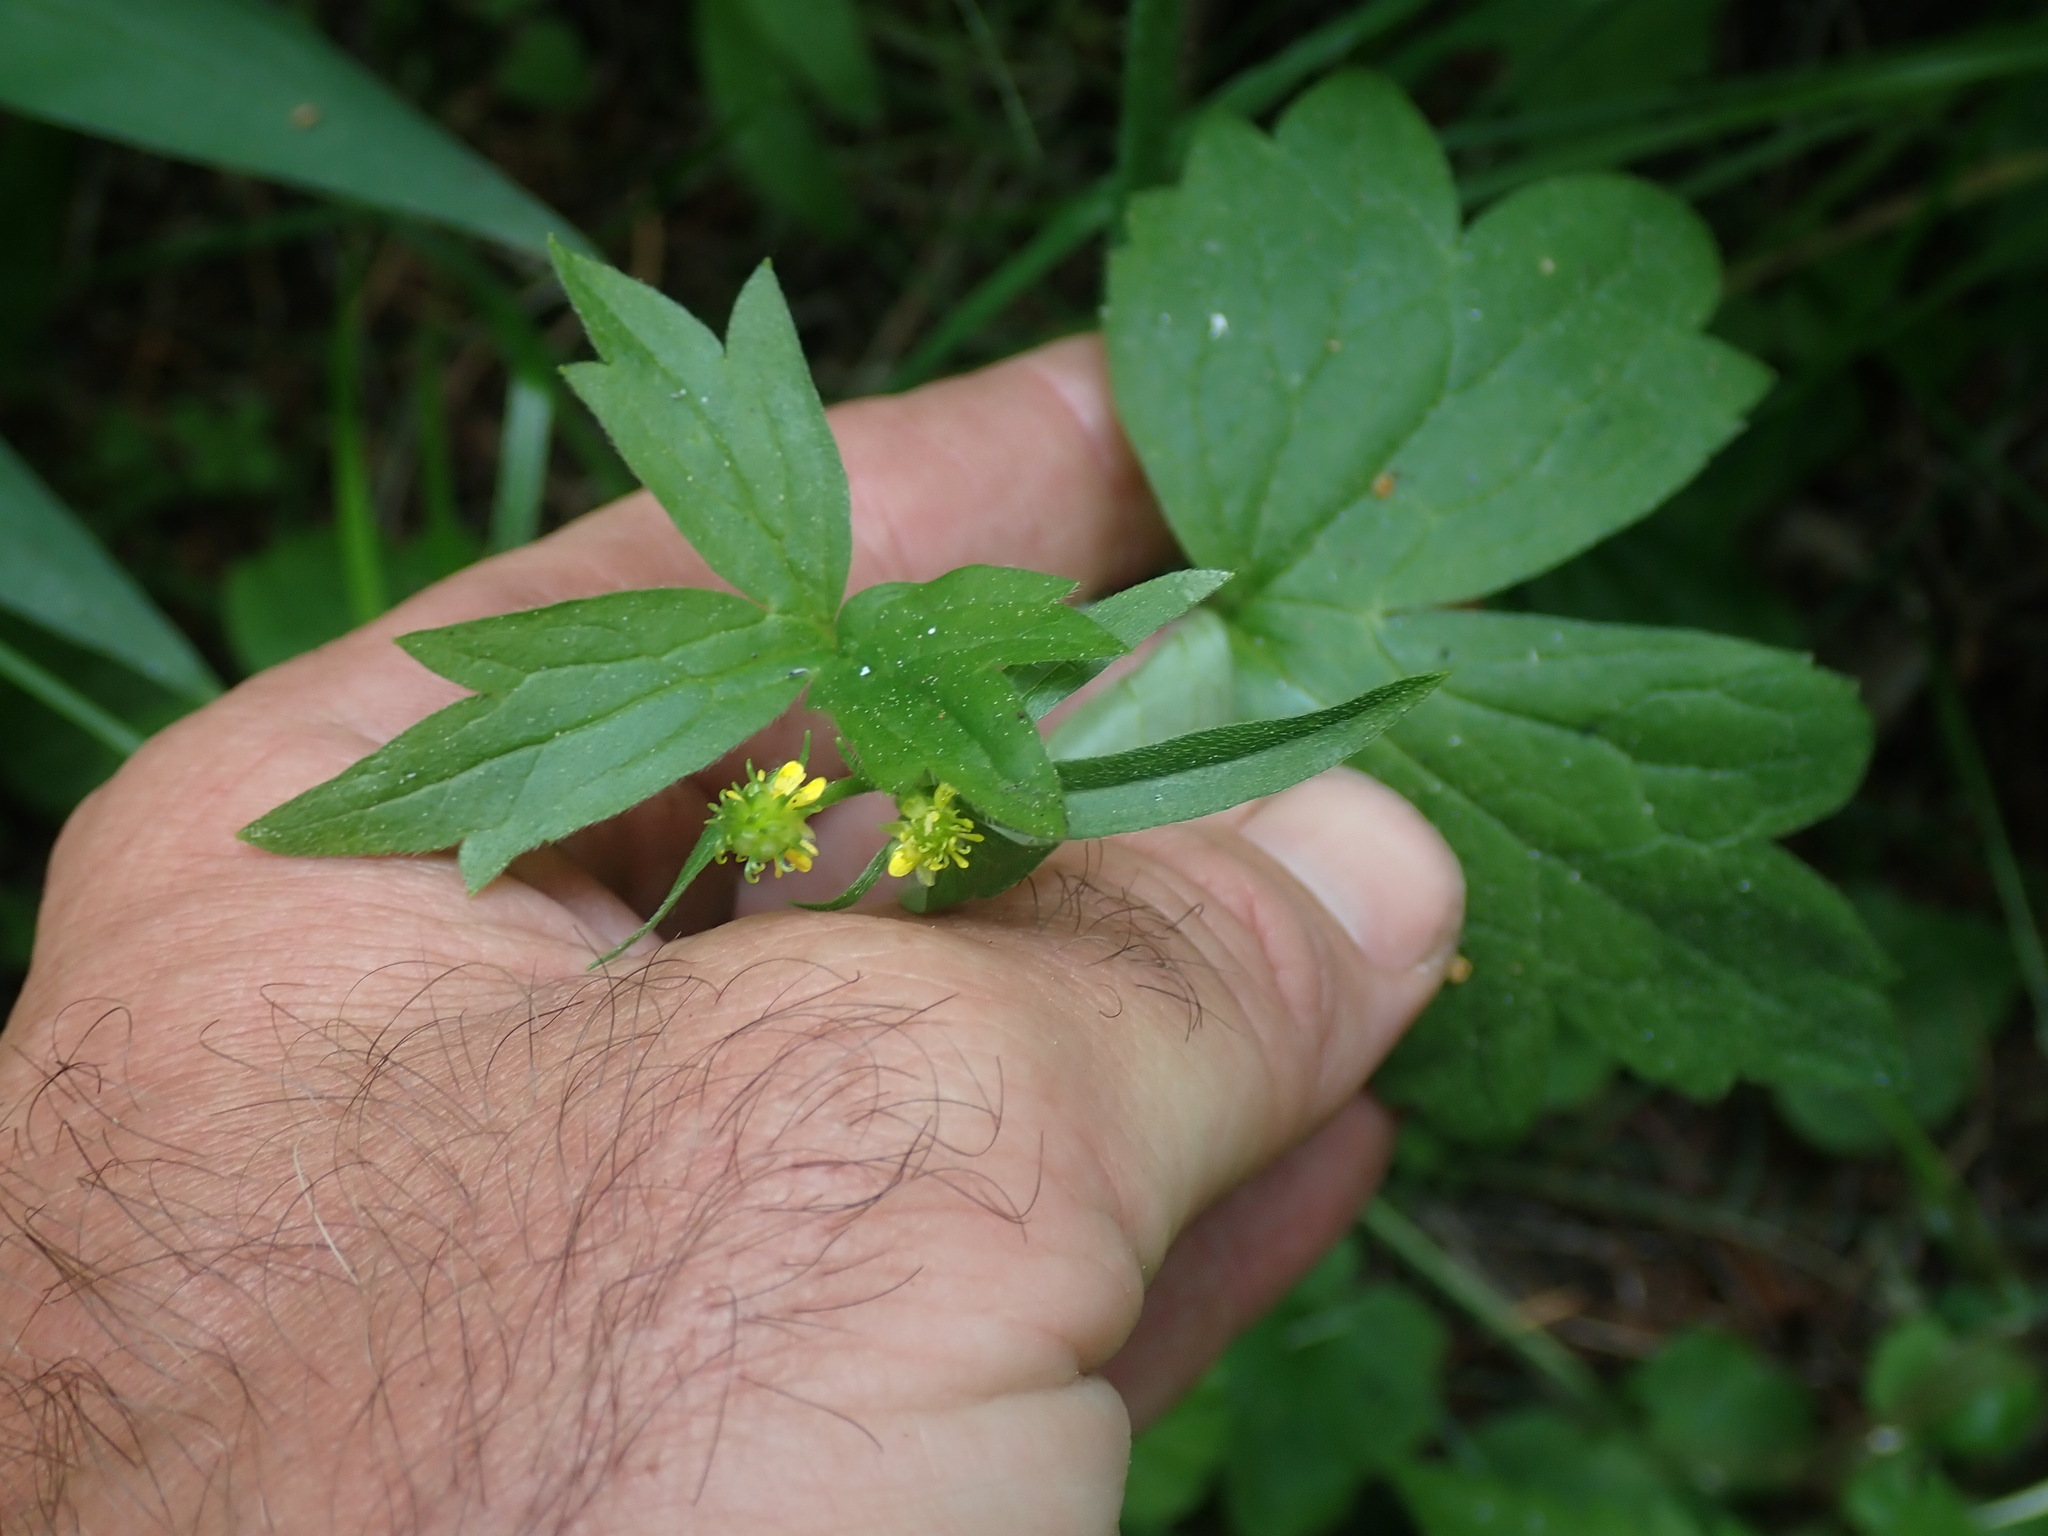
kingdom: Plantae
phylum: Tracheophyta
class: Magnoliopsida
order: Ranunculales
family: Ranunculaceae
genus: Ranunculus
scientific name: Ranunculus uncinatus
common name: Little buttercup
